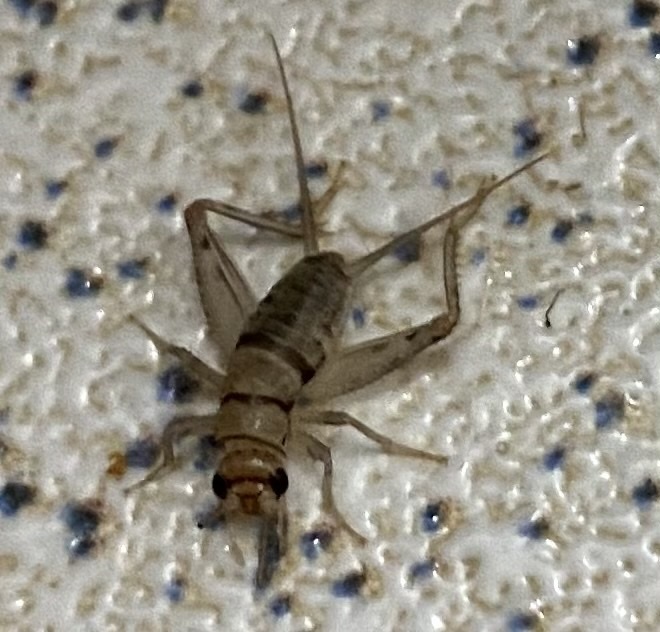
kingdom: Animalia
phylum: Arthropoda
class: Insecta
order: Orthoptera
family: Gryllidae
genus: Gryllodes
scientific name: Gryllodes sigillatus
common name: Tropical house cricket
